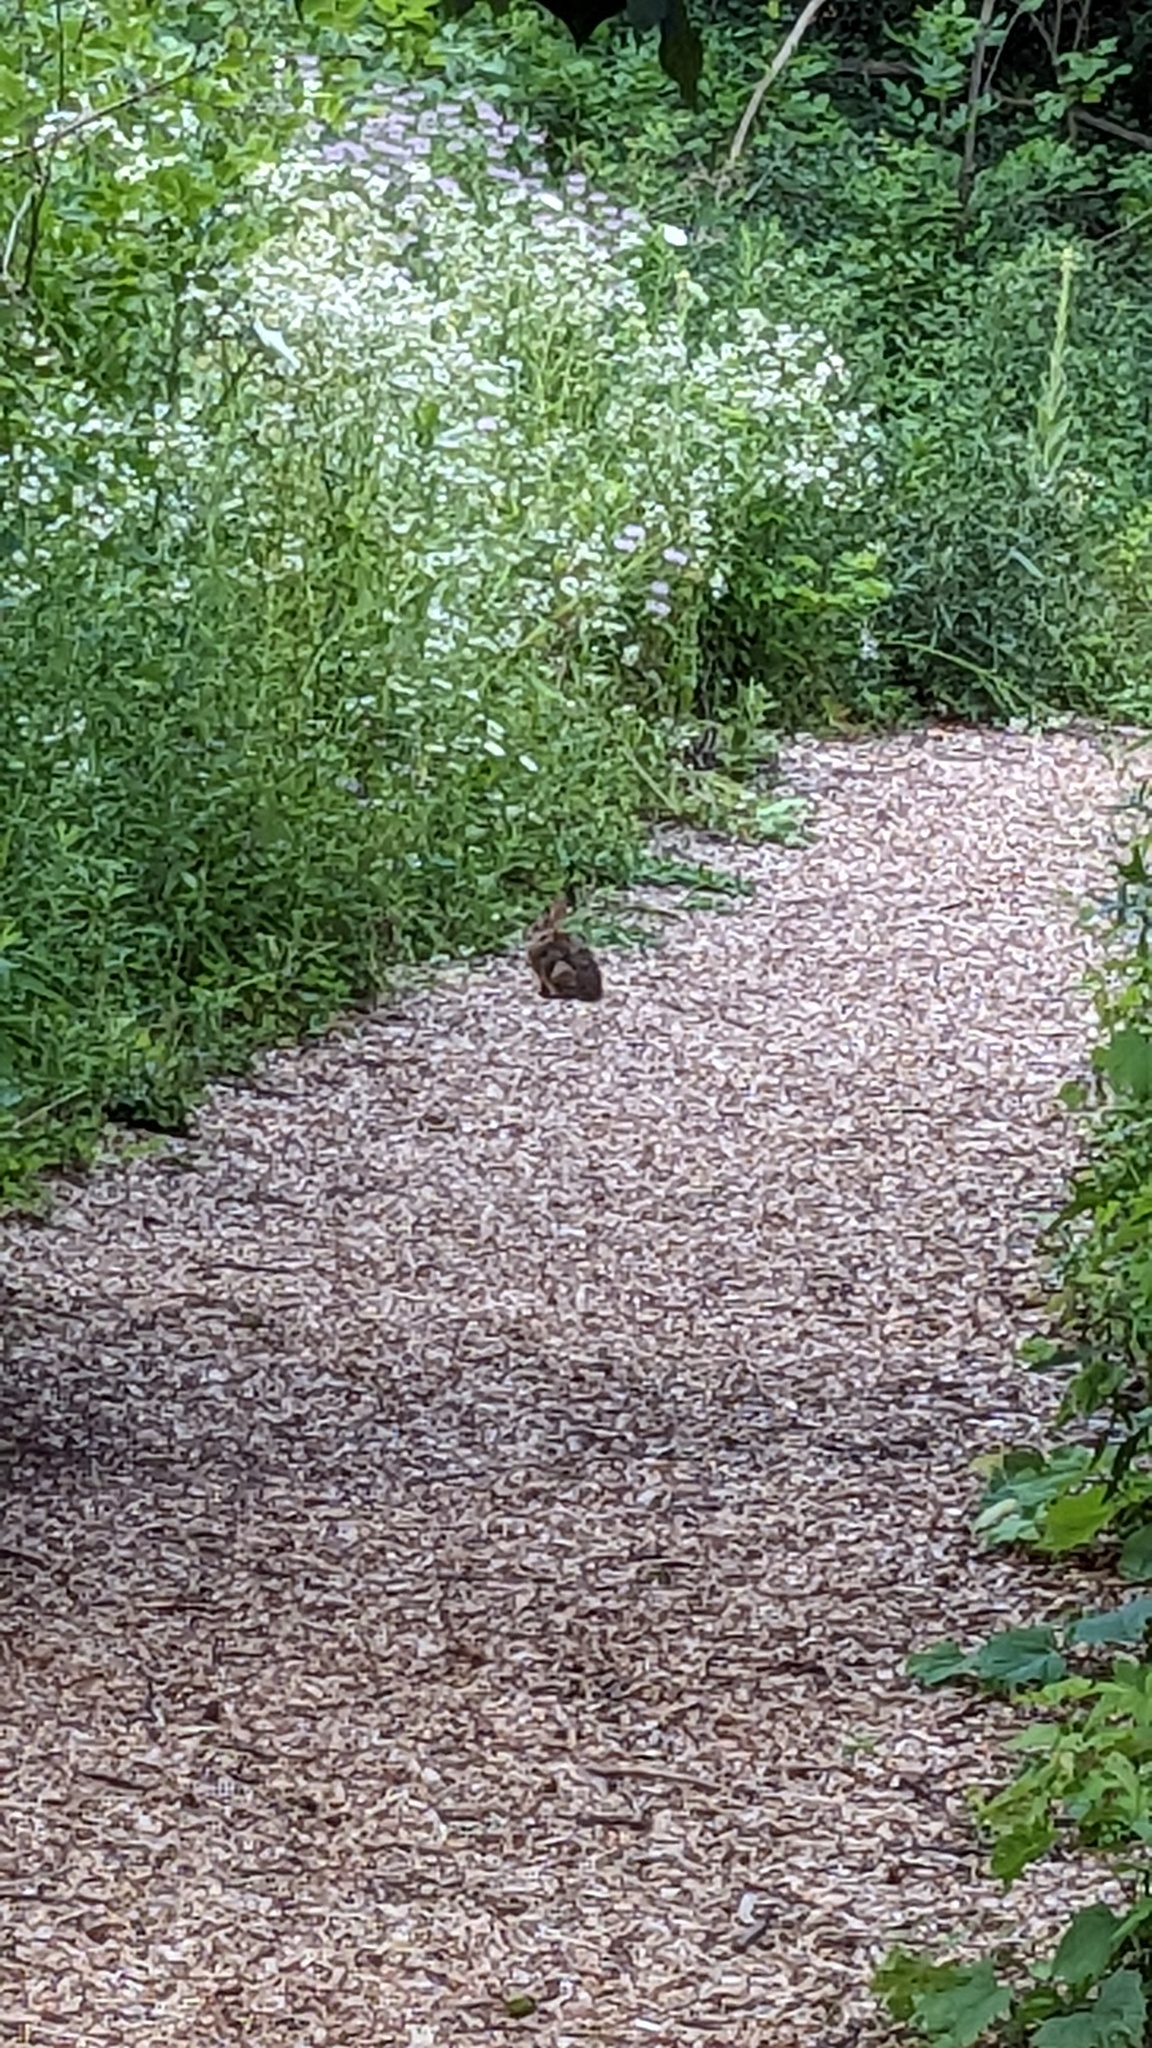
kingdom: Animalia
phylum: Chordata
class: Mammalia
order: Lagomorpha
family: Leporidae
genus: Sylvilagus
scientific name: Sylvilagus floridanus
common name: Eastern cottontail
